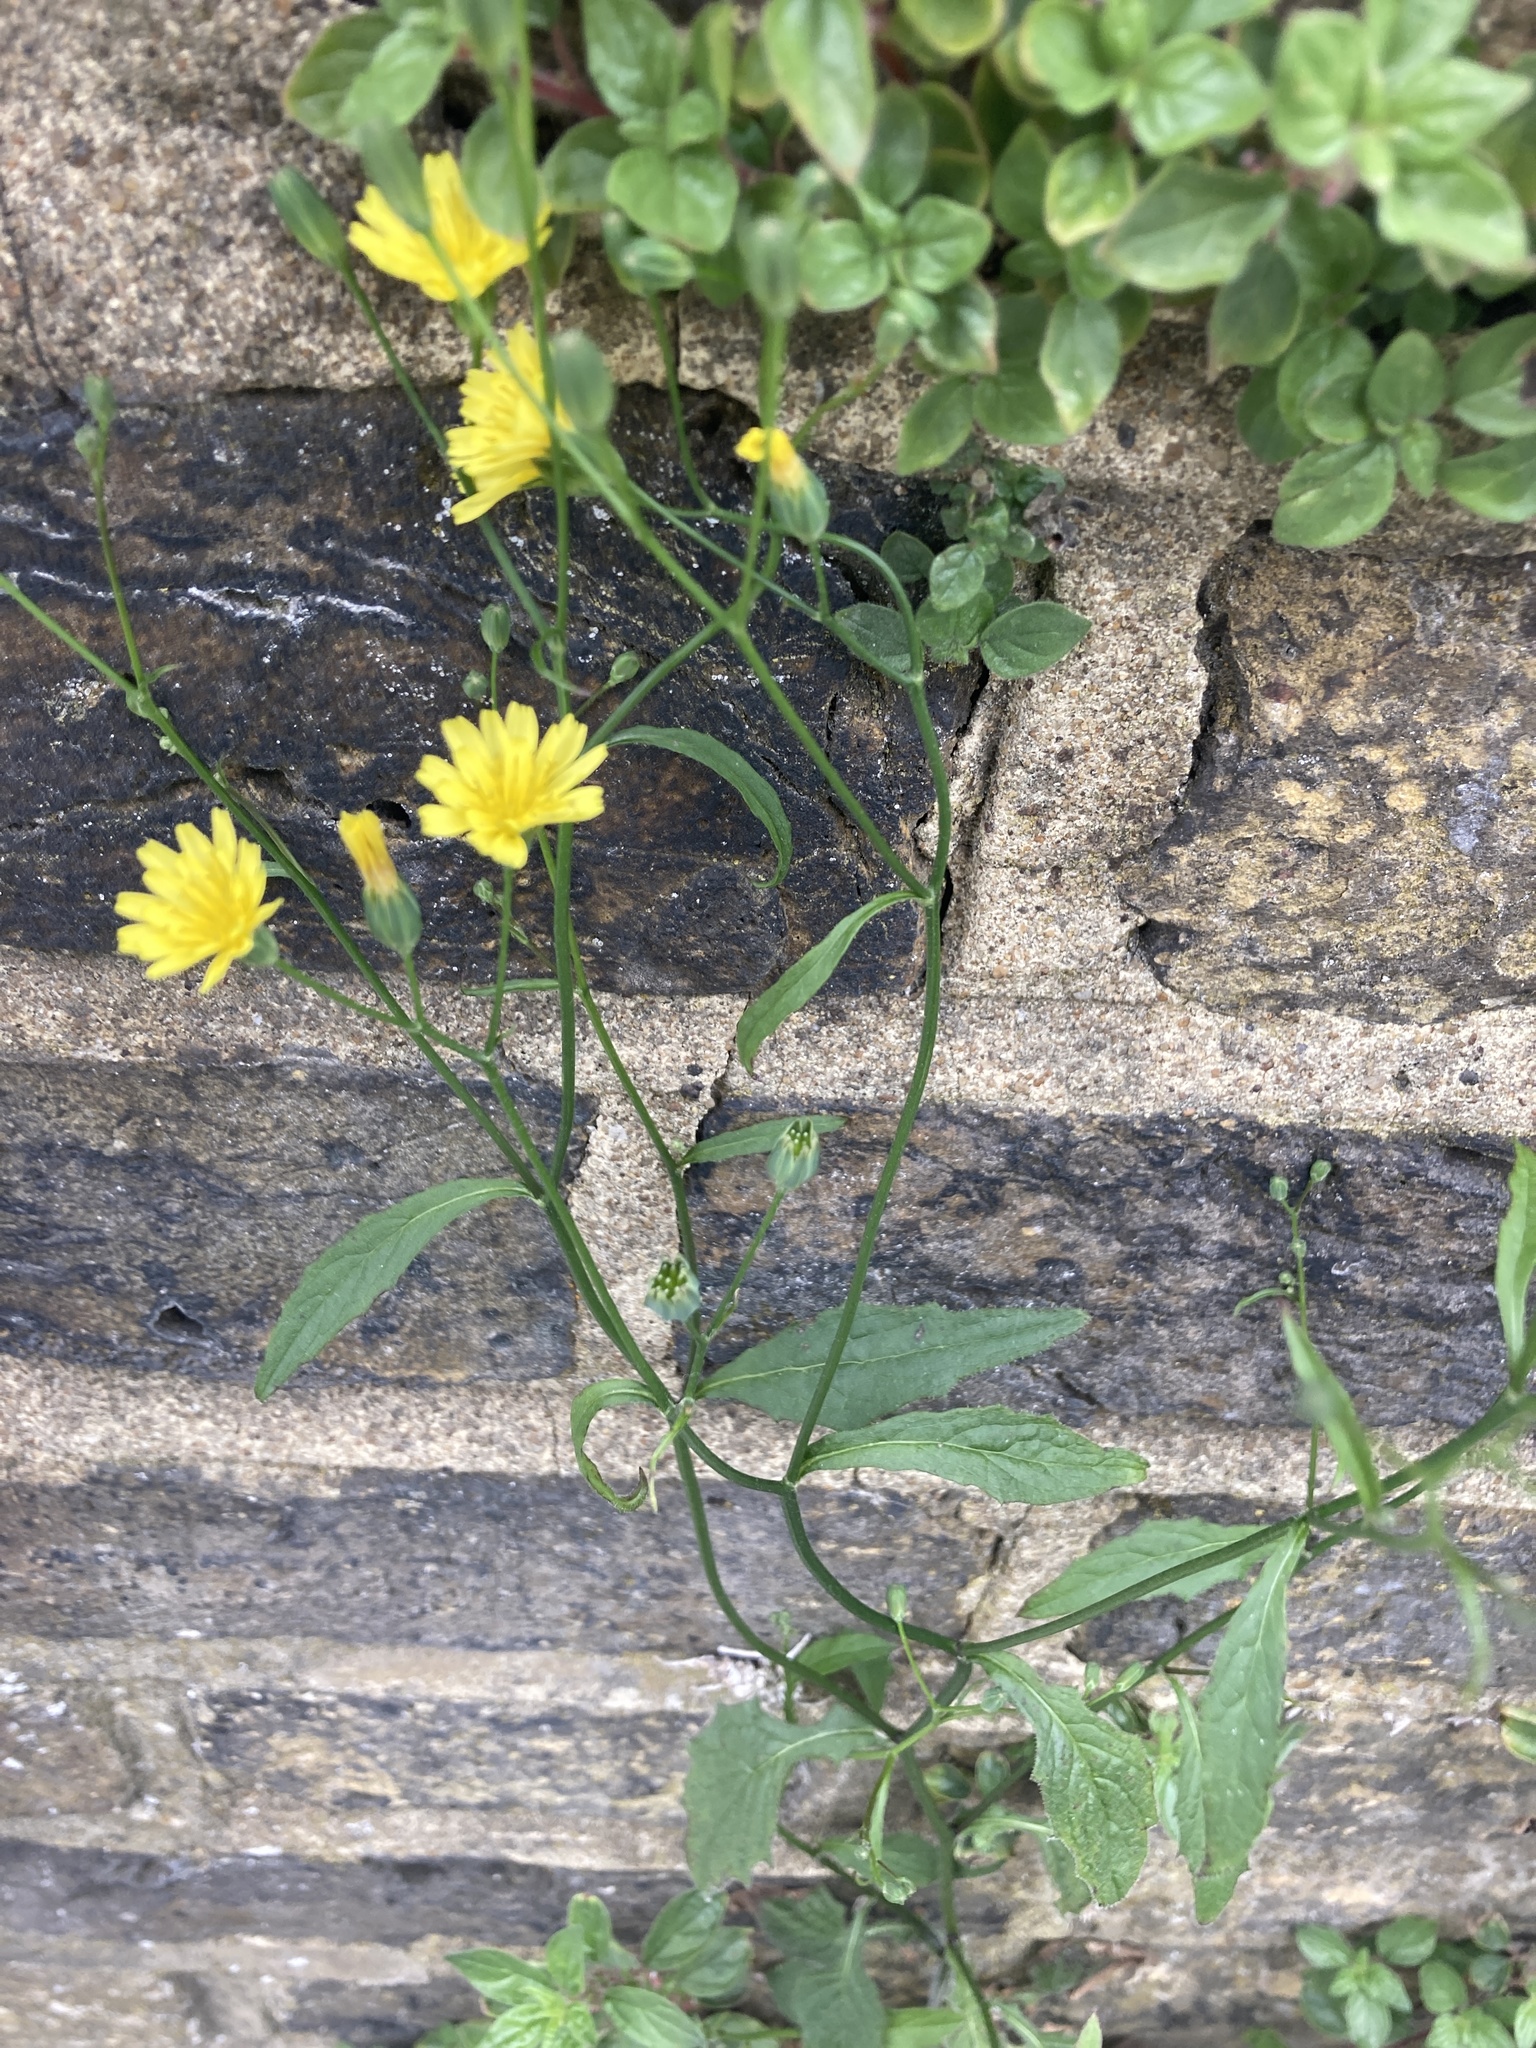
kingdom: Plantae
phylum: Tracheophyta
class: Magnoliopsida
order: Asterales
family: Asteraceae
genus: Lapsana
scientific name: Lapsana communis
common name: Nipplewort
